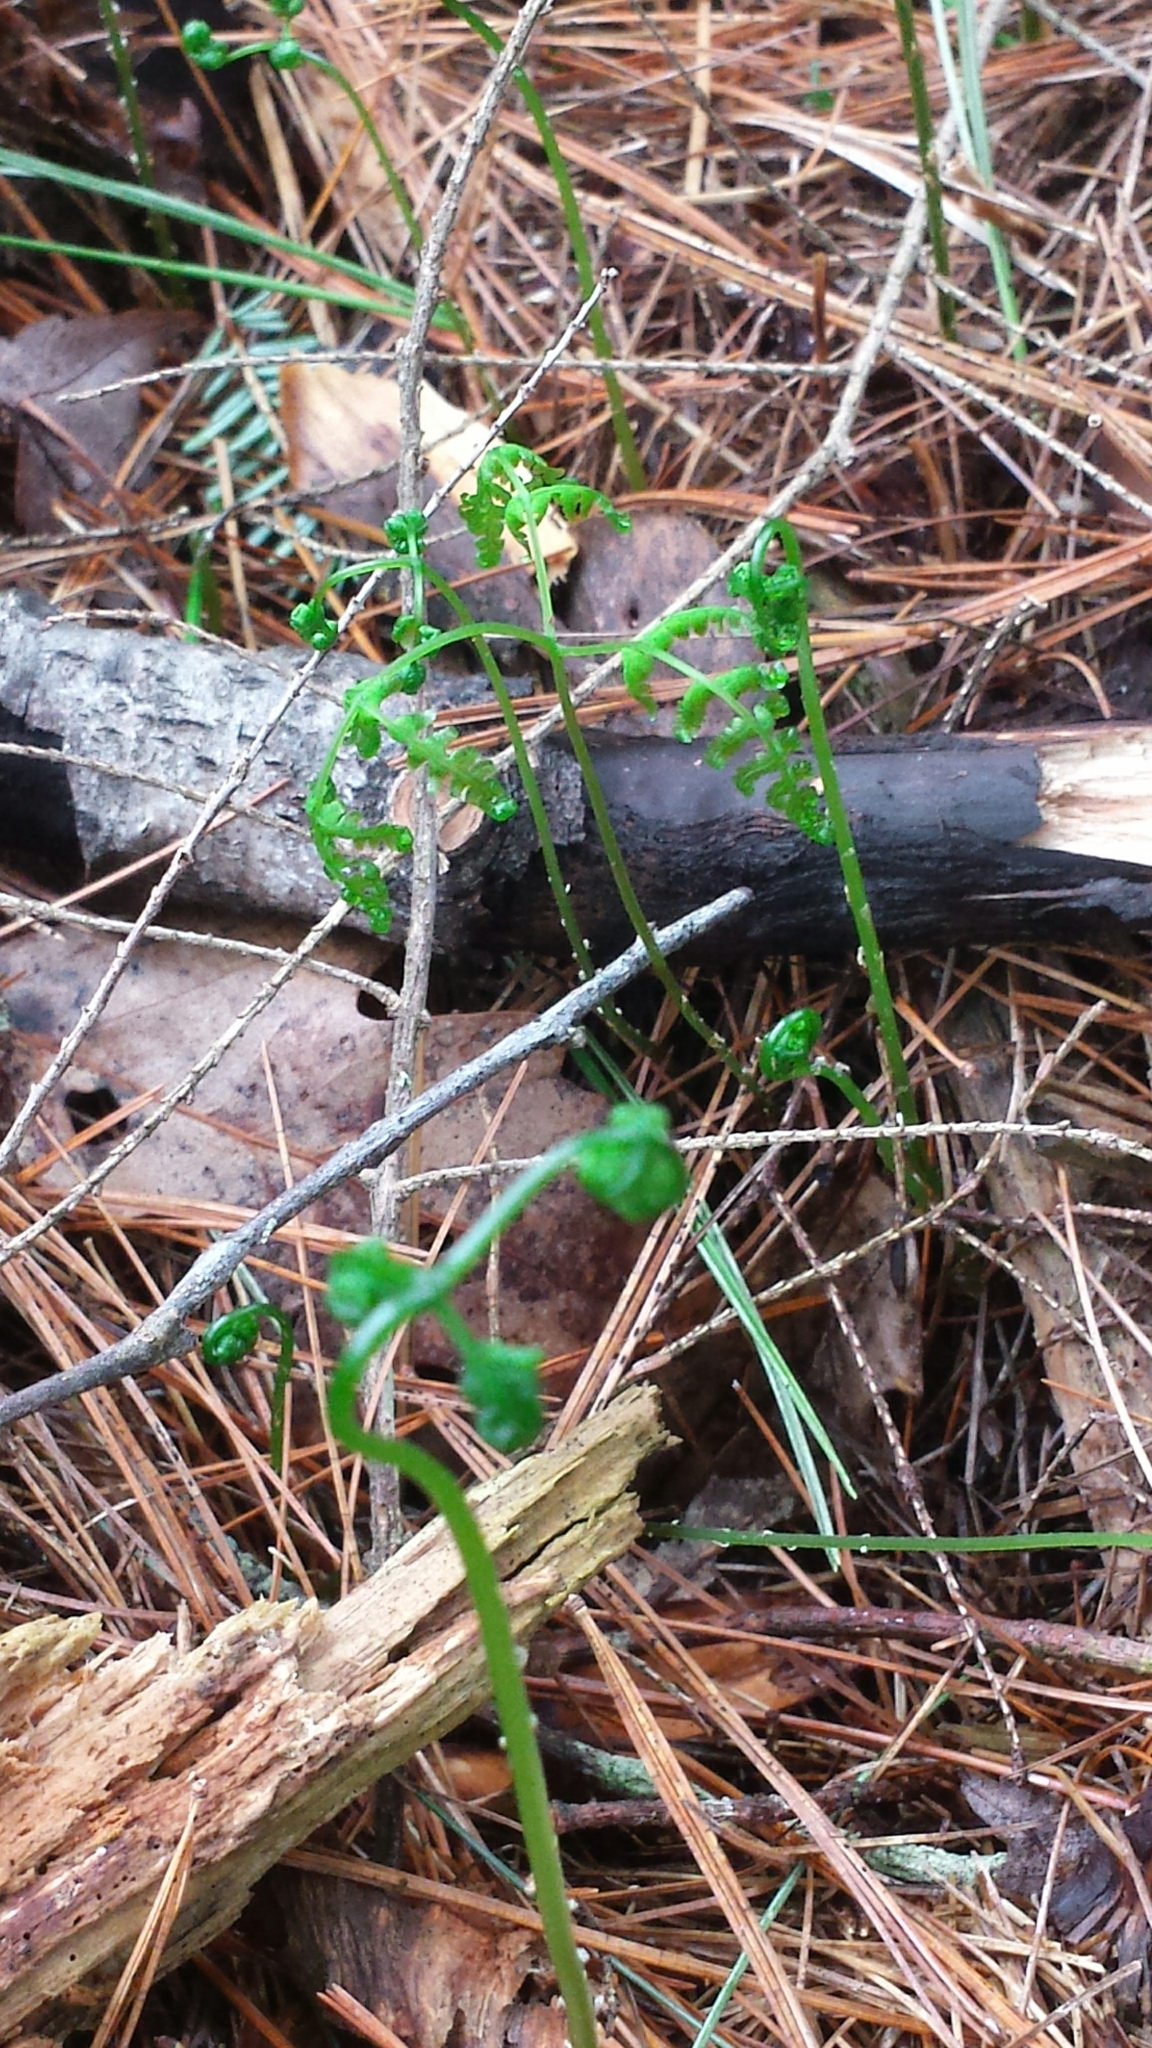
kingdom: Plantae
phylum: Tracheophyta
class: Polypodiopsida
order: Polypodiales
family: Cystopteridaceae
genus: Gymnocarpium
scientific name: Gymnocarpium dryopteris
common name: Oak fern
